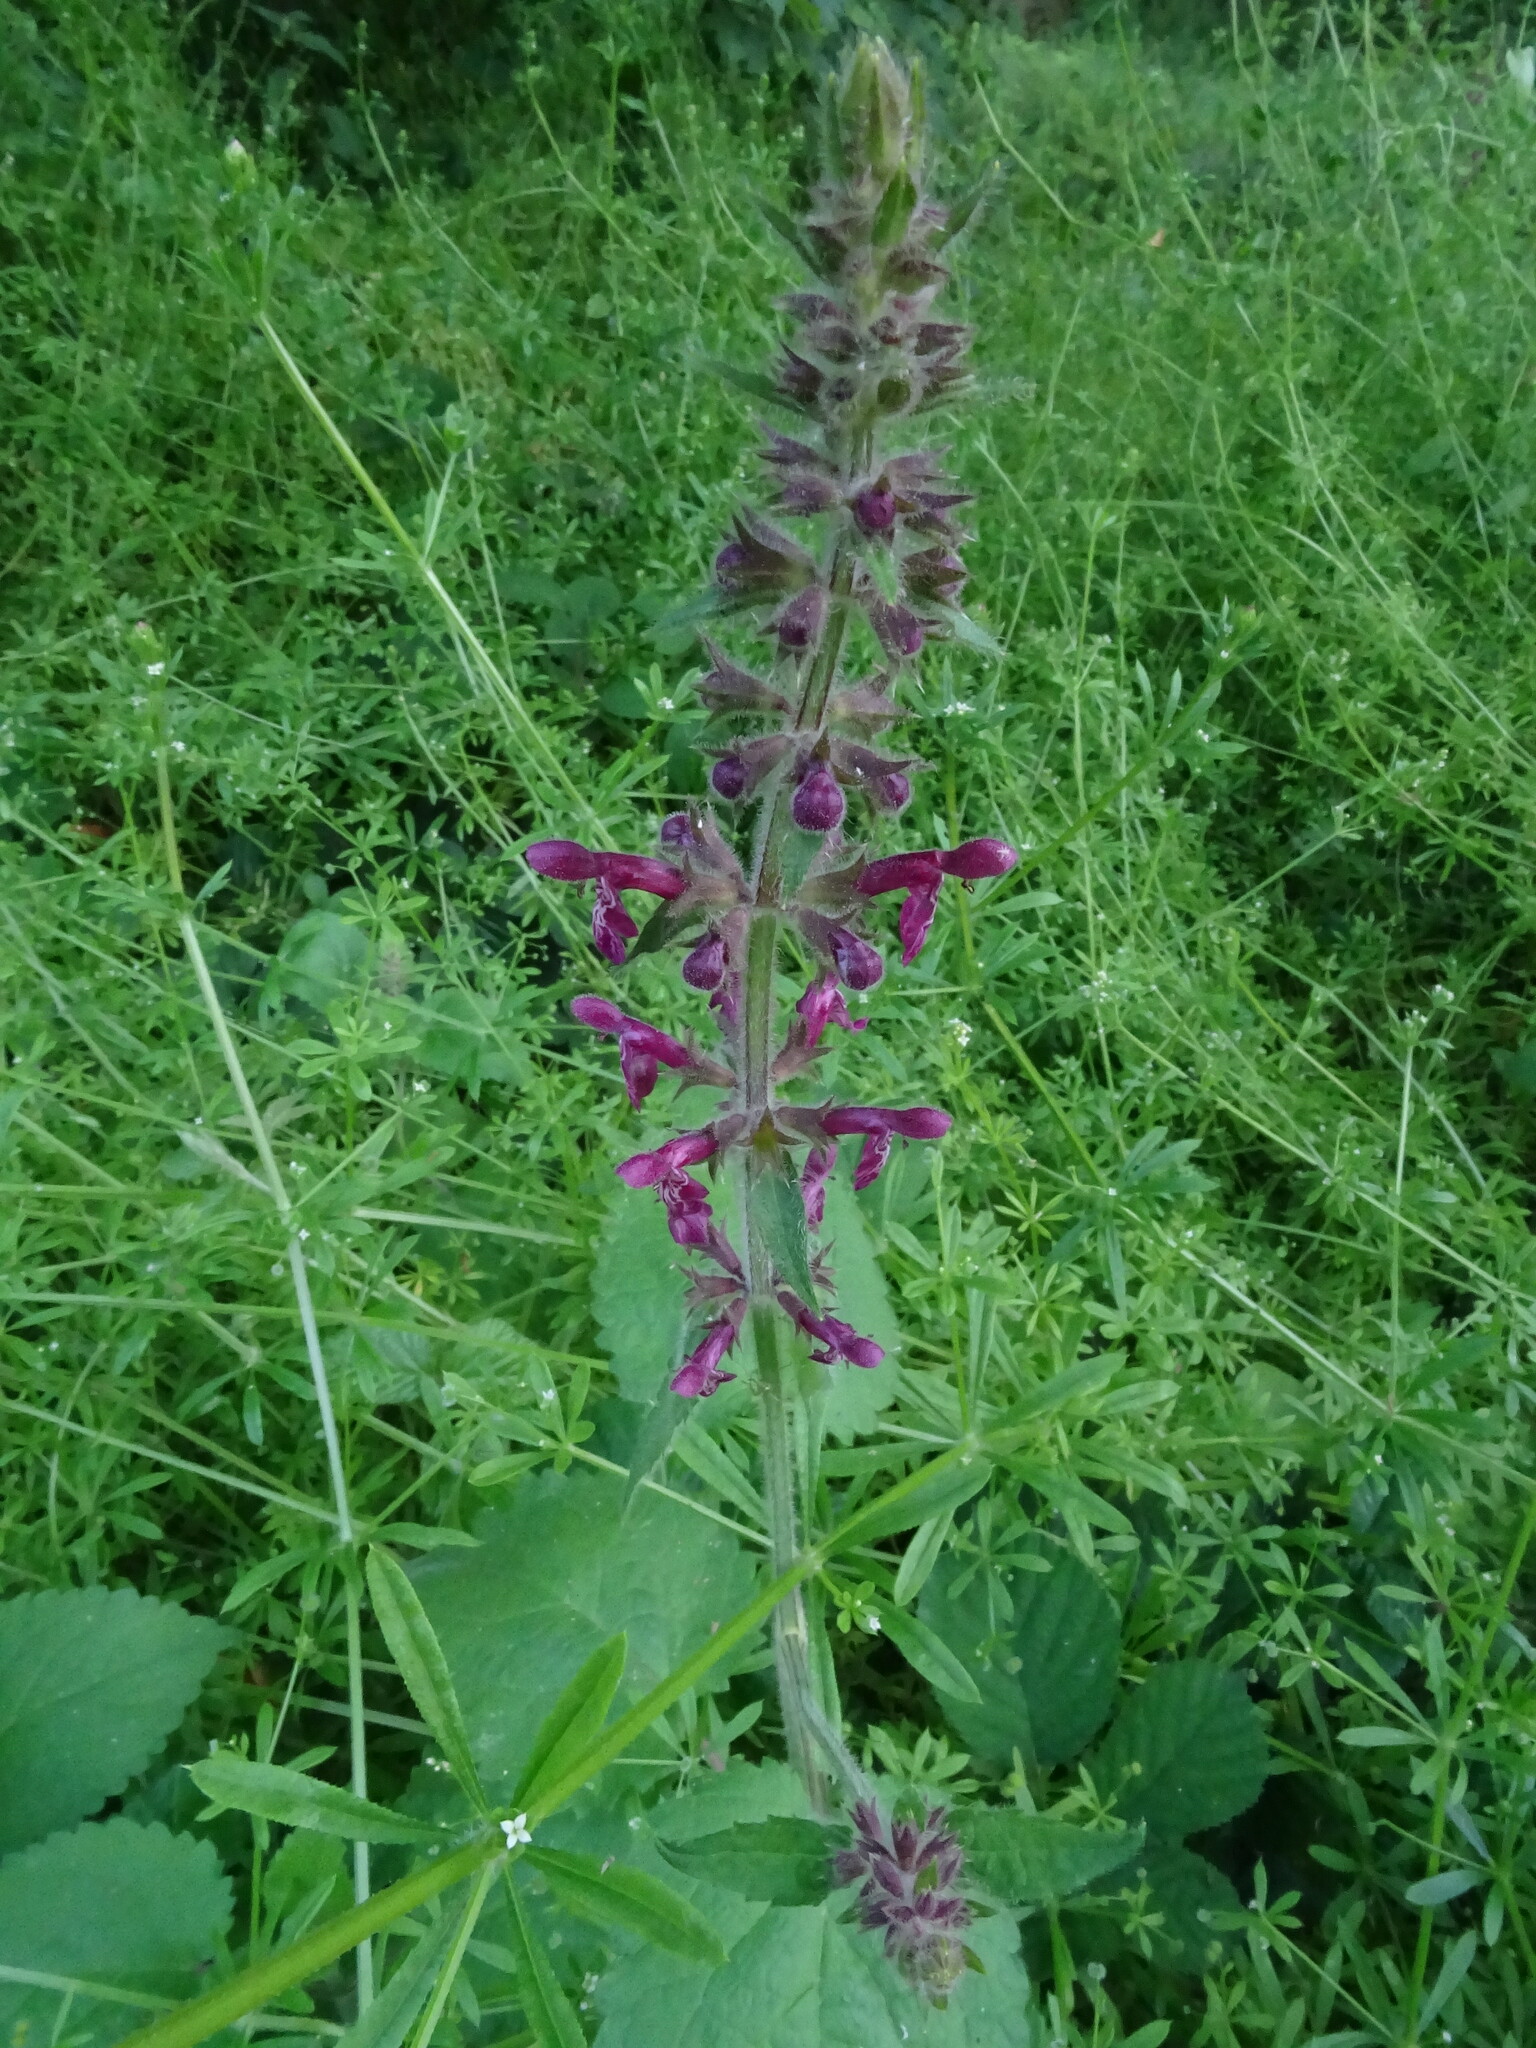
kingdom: Plantae
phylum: Tracheophyta
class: Magnoliopsida
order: Lamiales
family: Lamiaceae
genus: Stachys
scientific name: Stachys sylvatica
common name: Hedge woundwort
